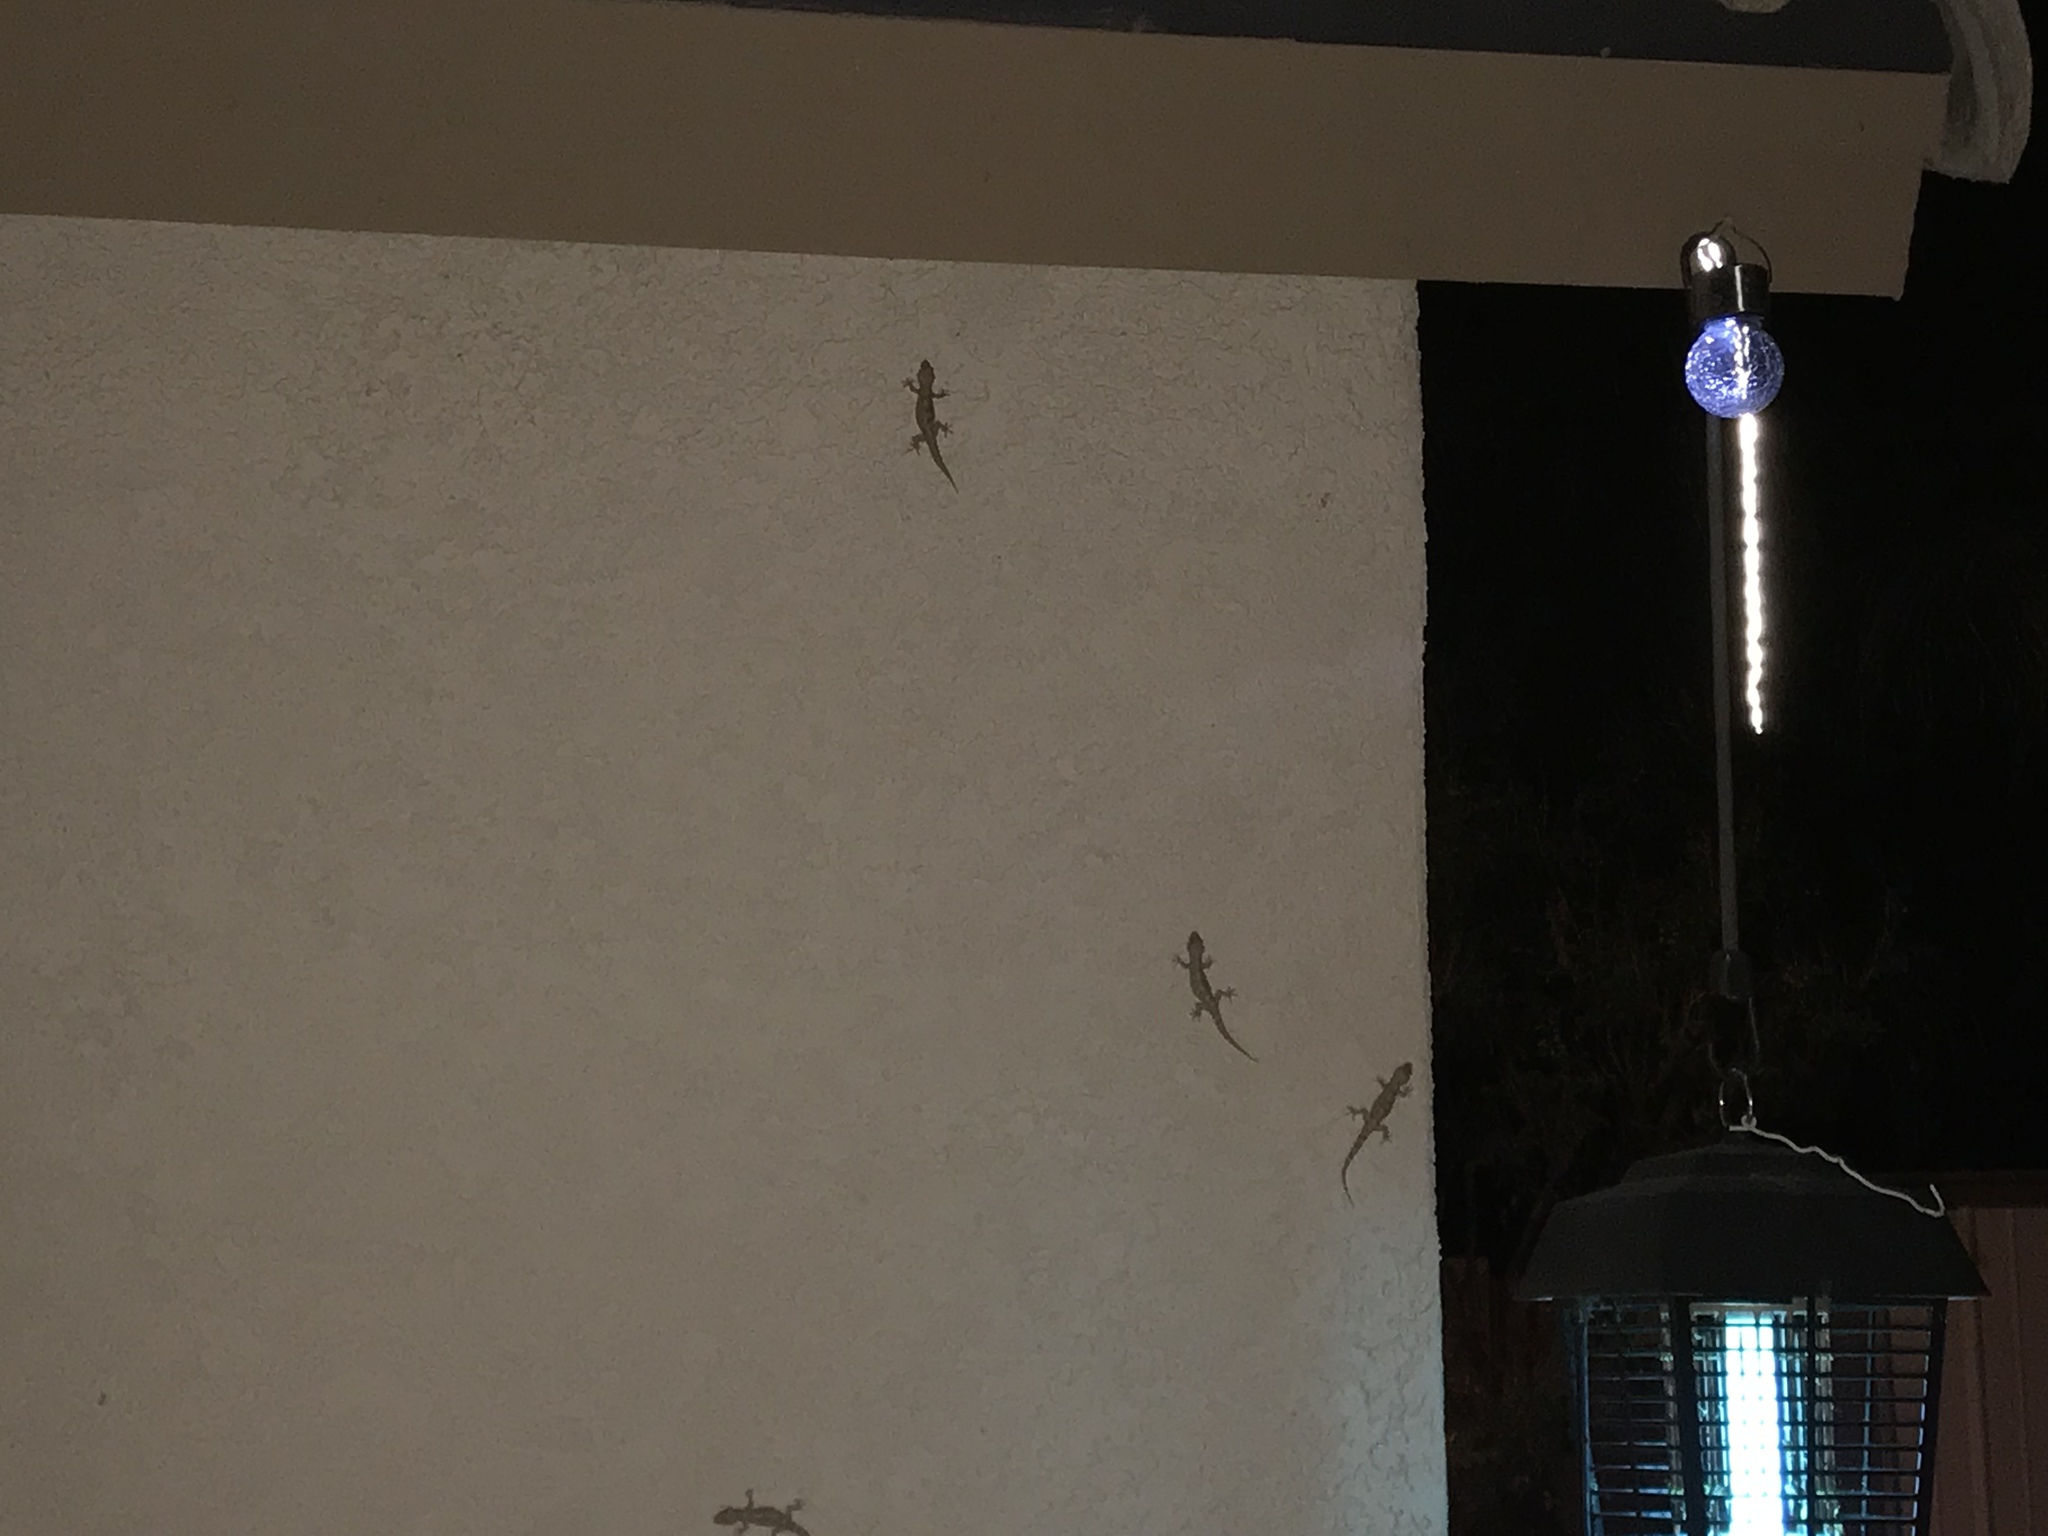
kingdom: Animalia
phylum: Chordata
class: Squamata
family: Gekkonidae
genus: Hemidactylus
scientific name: Hemidactylus turcicus
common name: Turkish gecko
